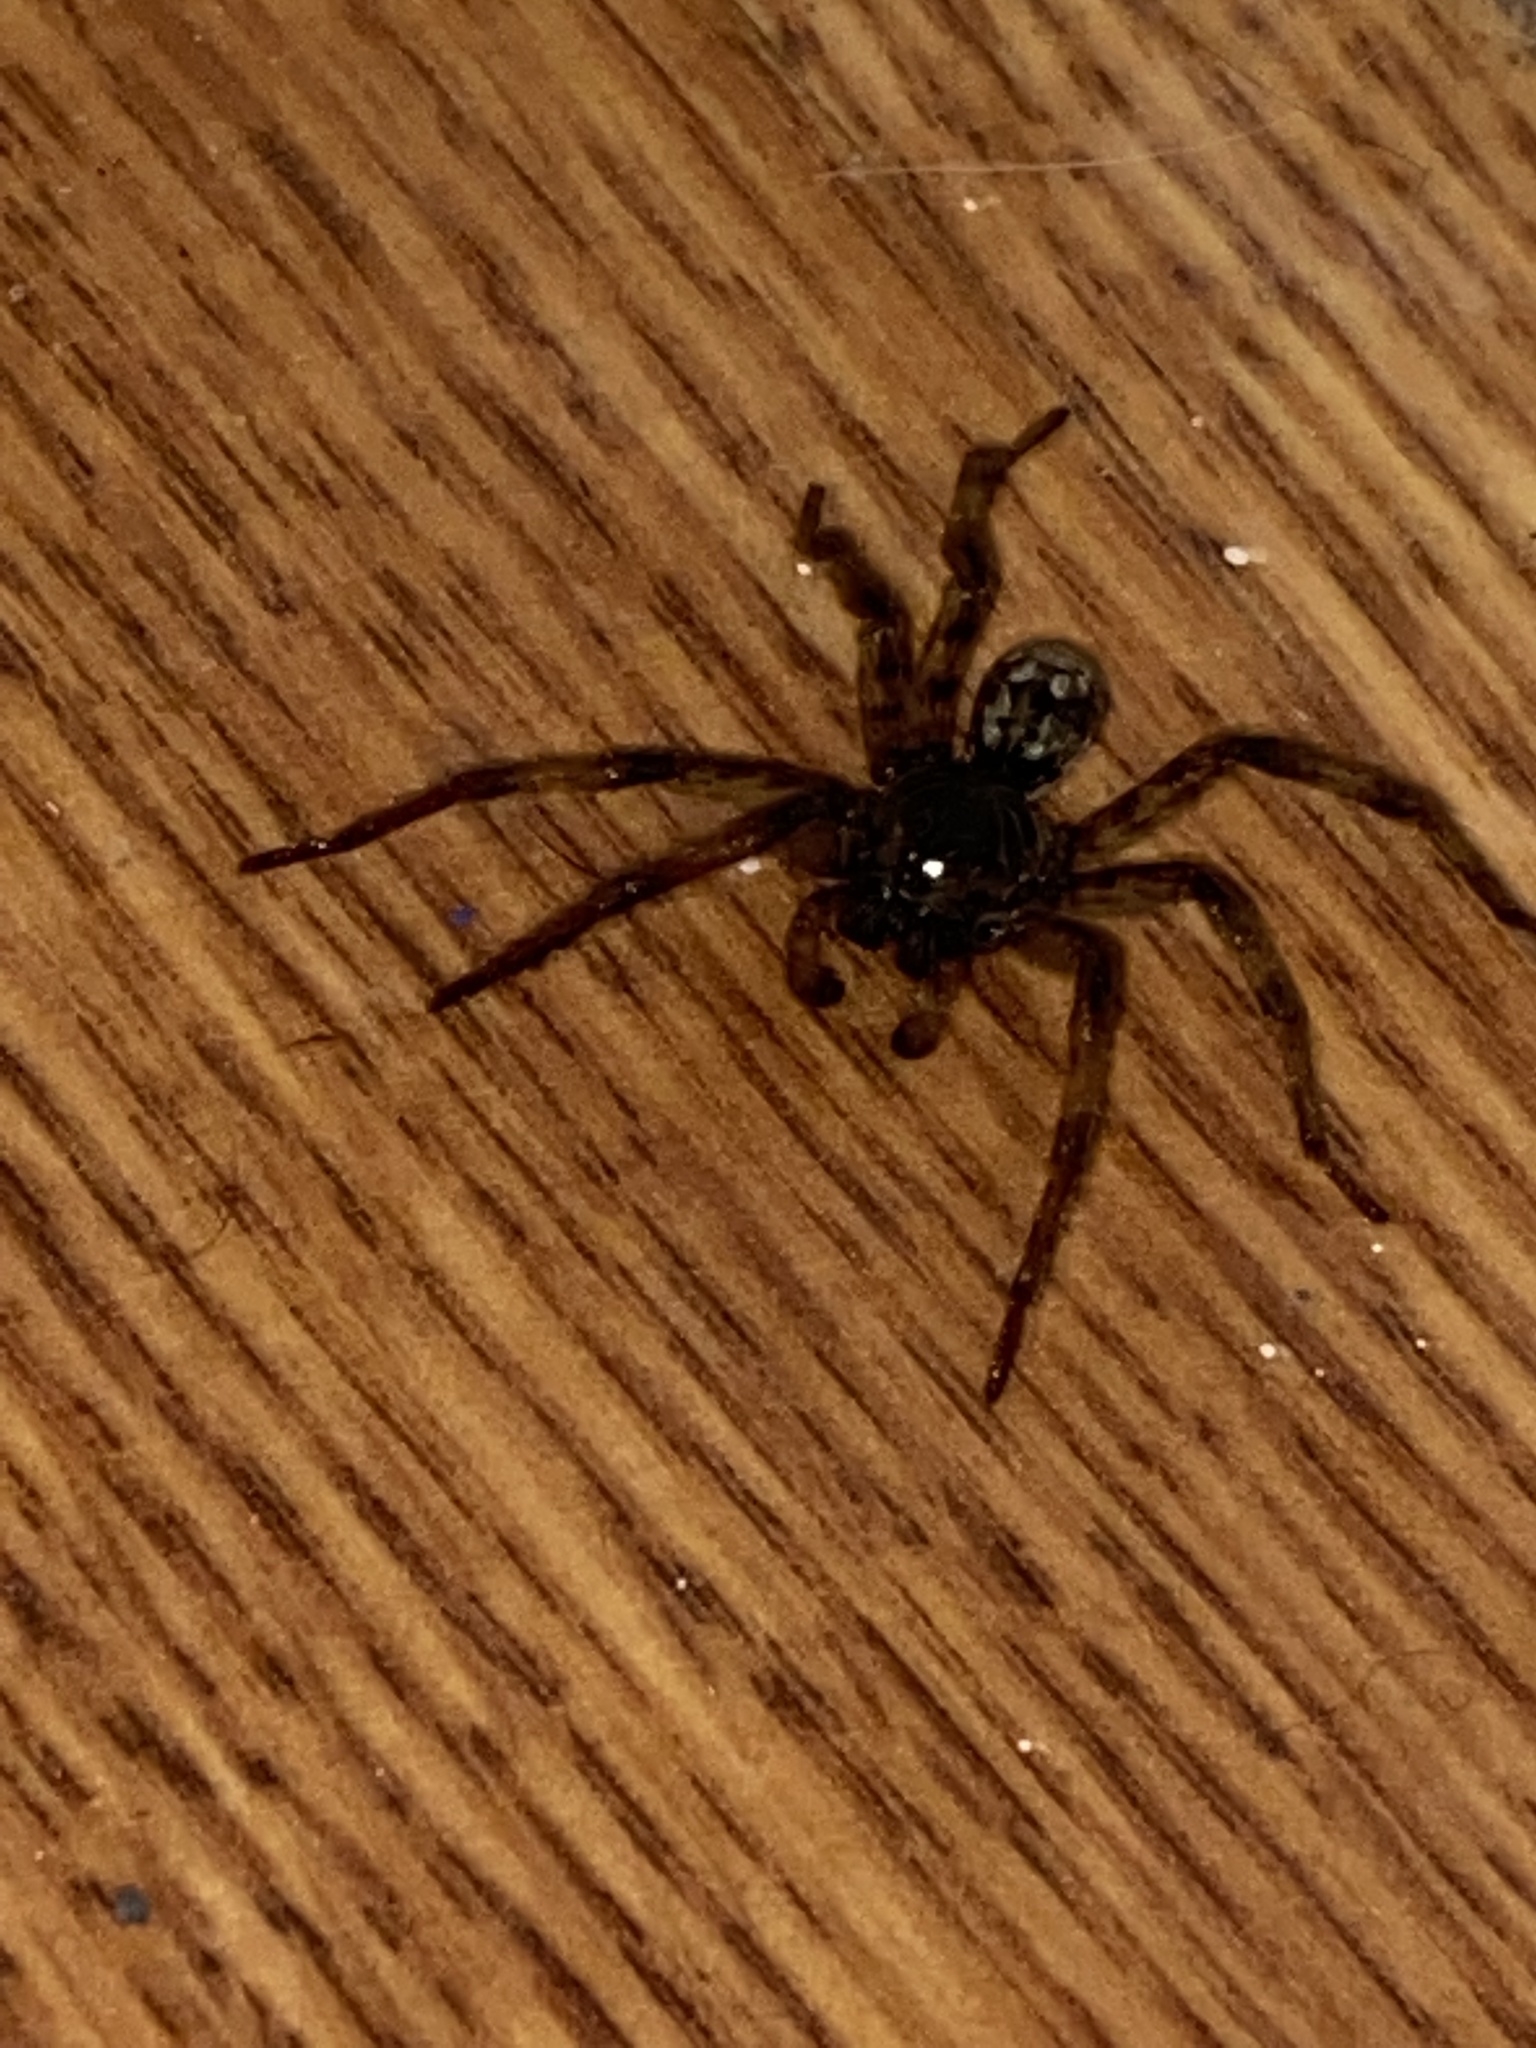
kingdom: Animalia
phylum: Arthropoda
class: Arachnida
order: Araneae
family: Lycosidae
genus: Hogna
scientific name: Hogna baltimoriana
